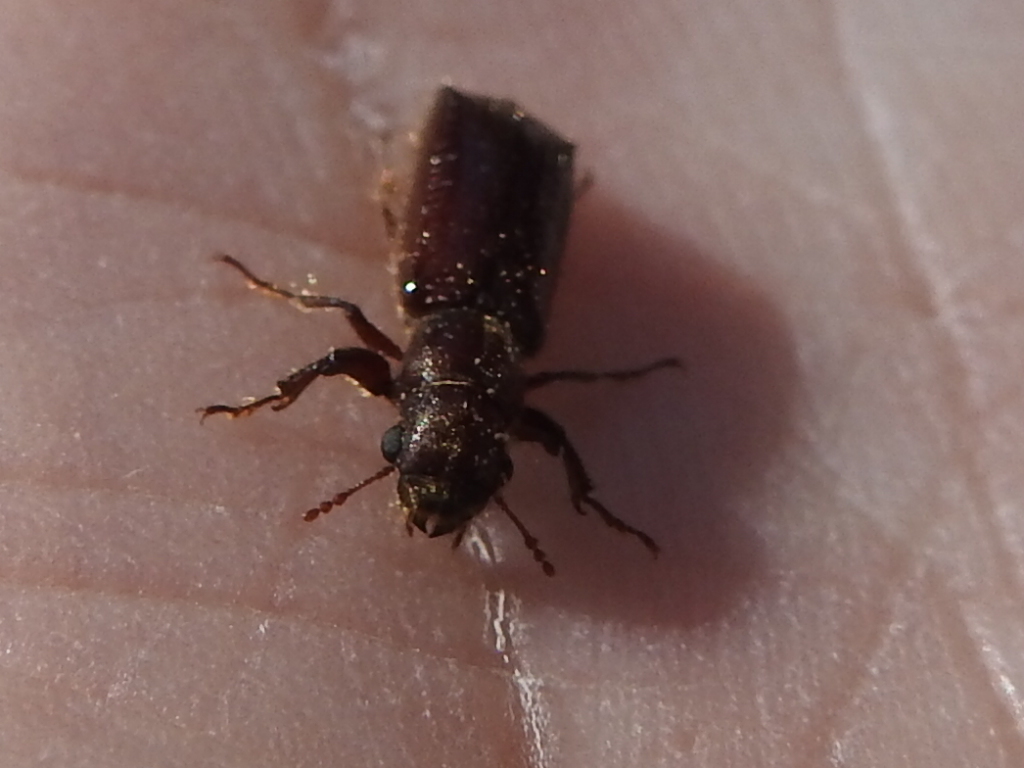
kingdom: Animalia
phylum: Arthropoda
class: Insecta
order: Coleoptera
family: Bostrichidae
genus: Melalgus
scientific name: Melalgus plicatus
